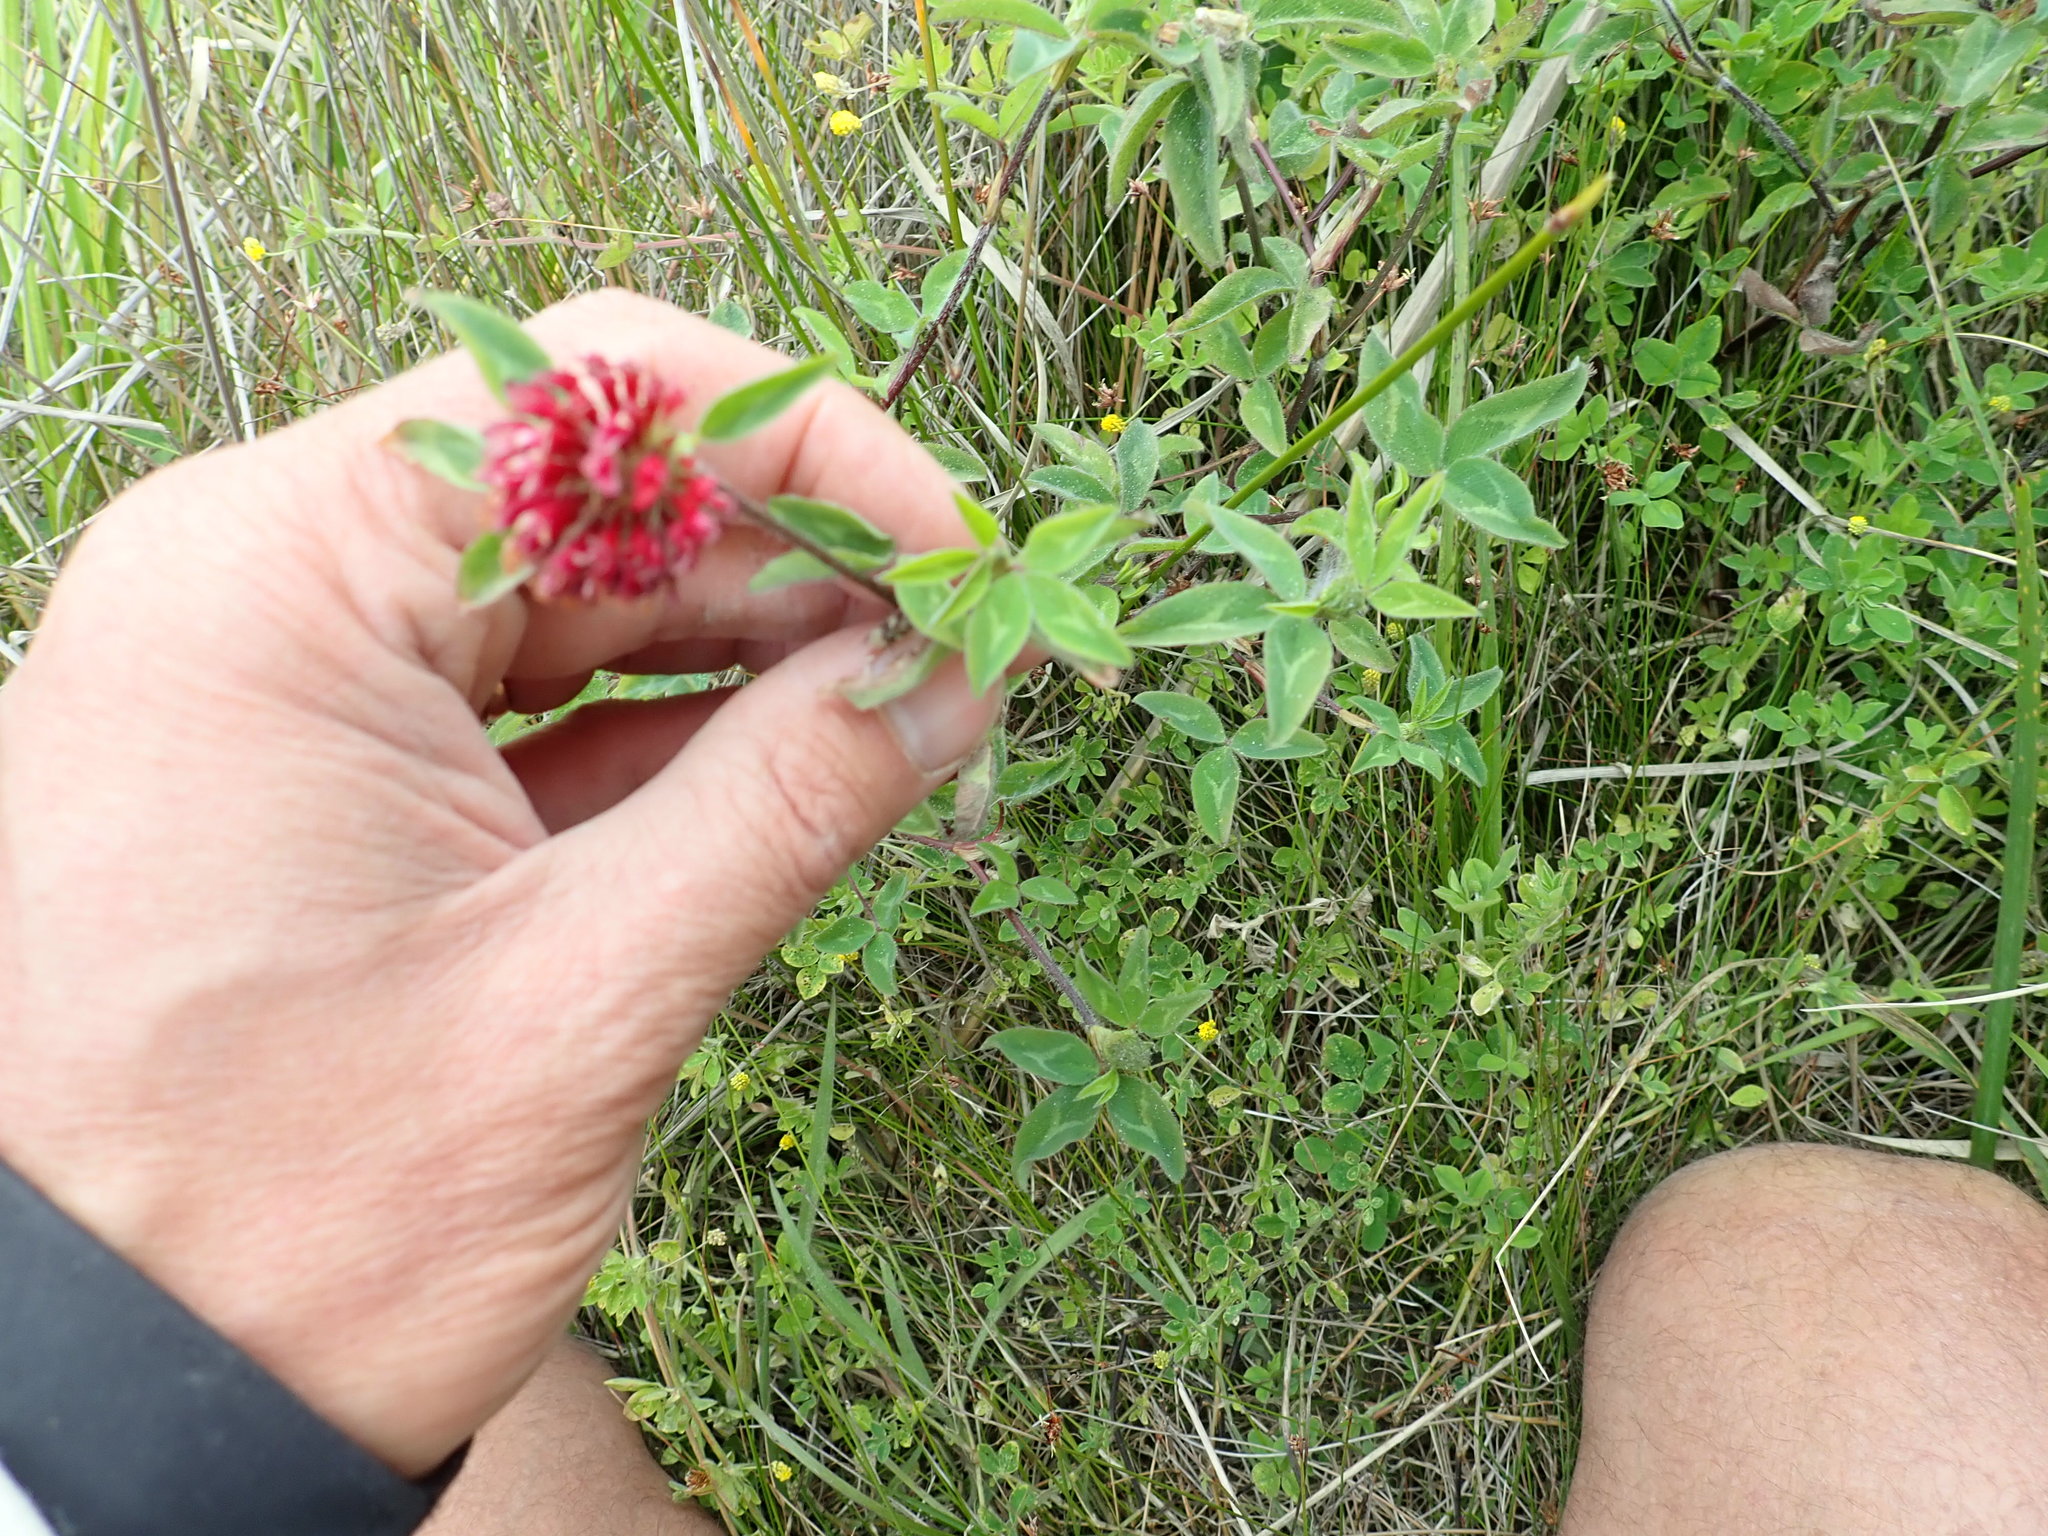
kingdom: Plantae
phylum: Tracheophyta
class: Magnoliopsida
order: Fabales
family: Fabaceae
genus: Trifolium
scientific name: Trifolium pratense
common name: Red clover
